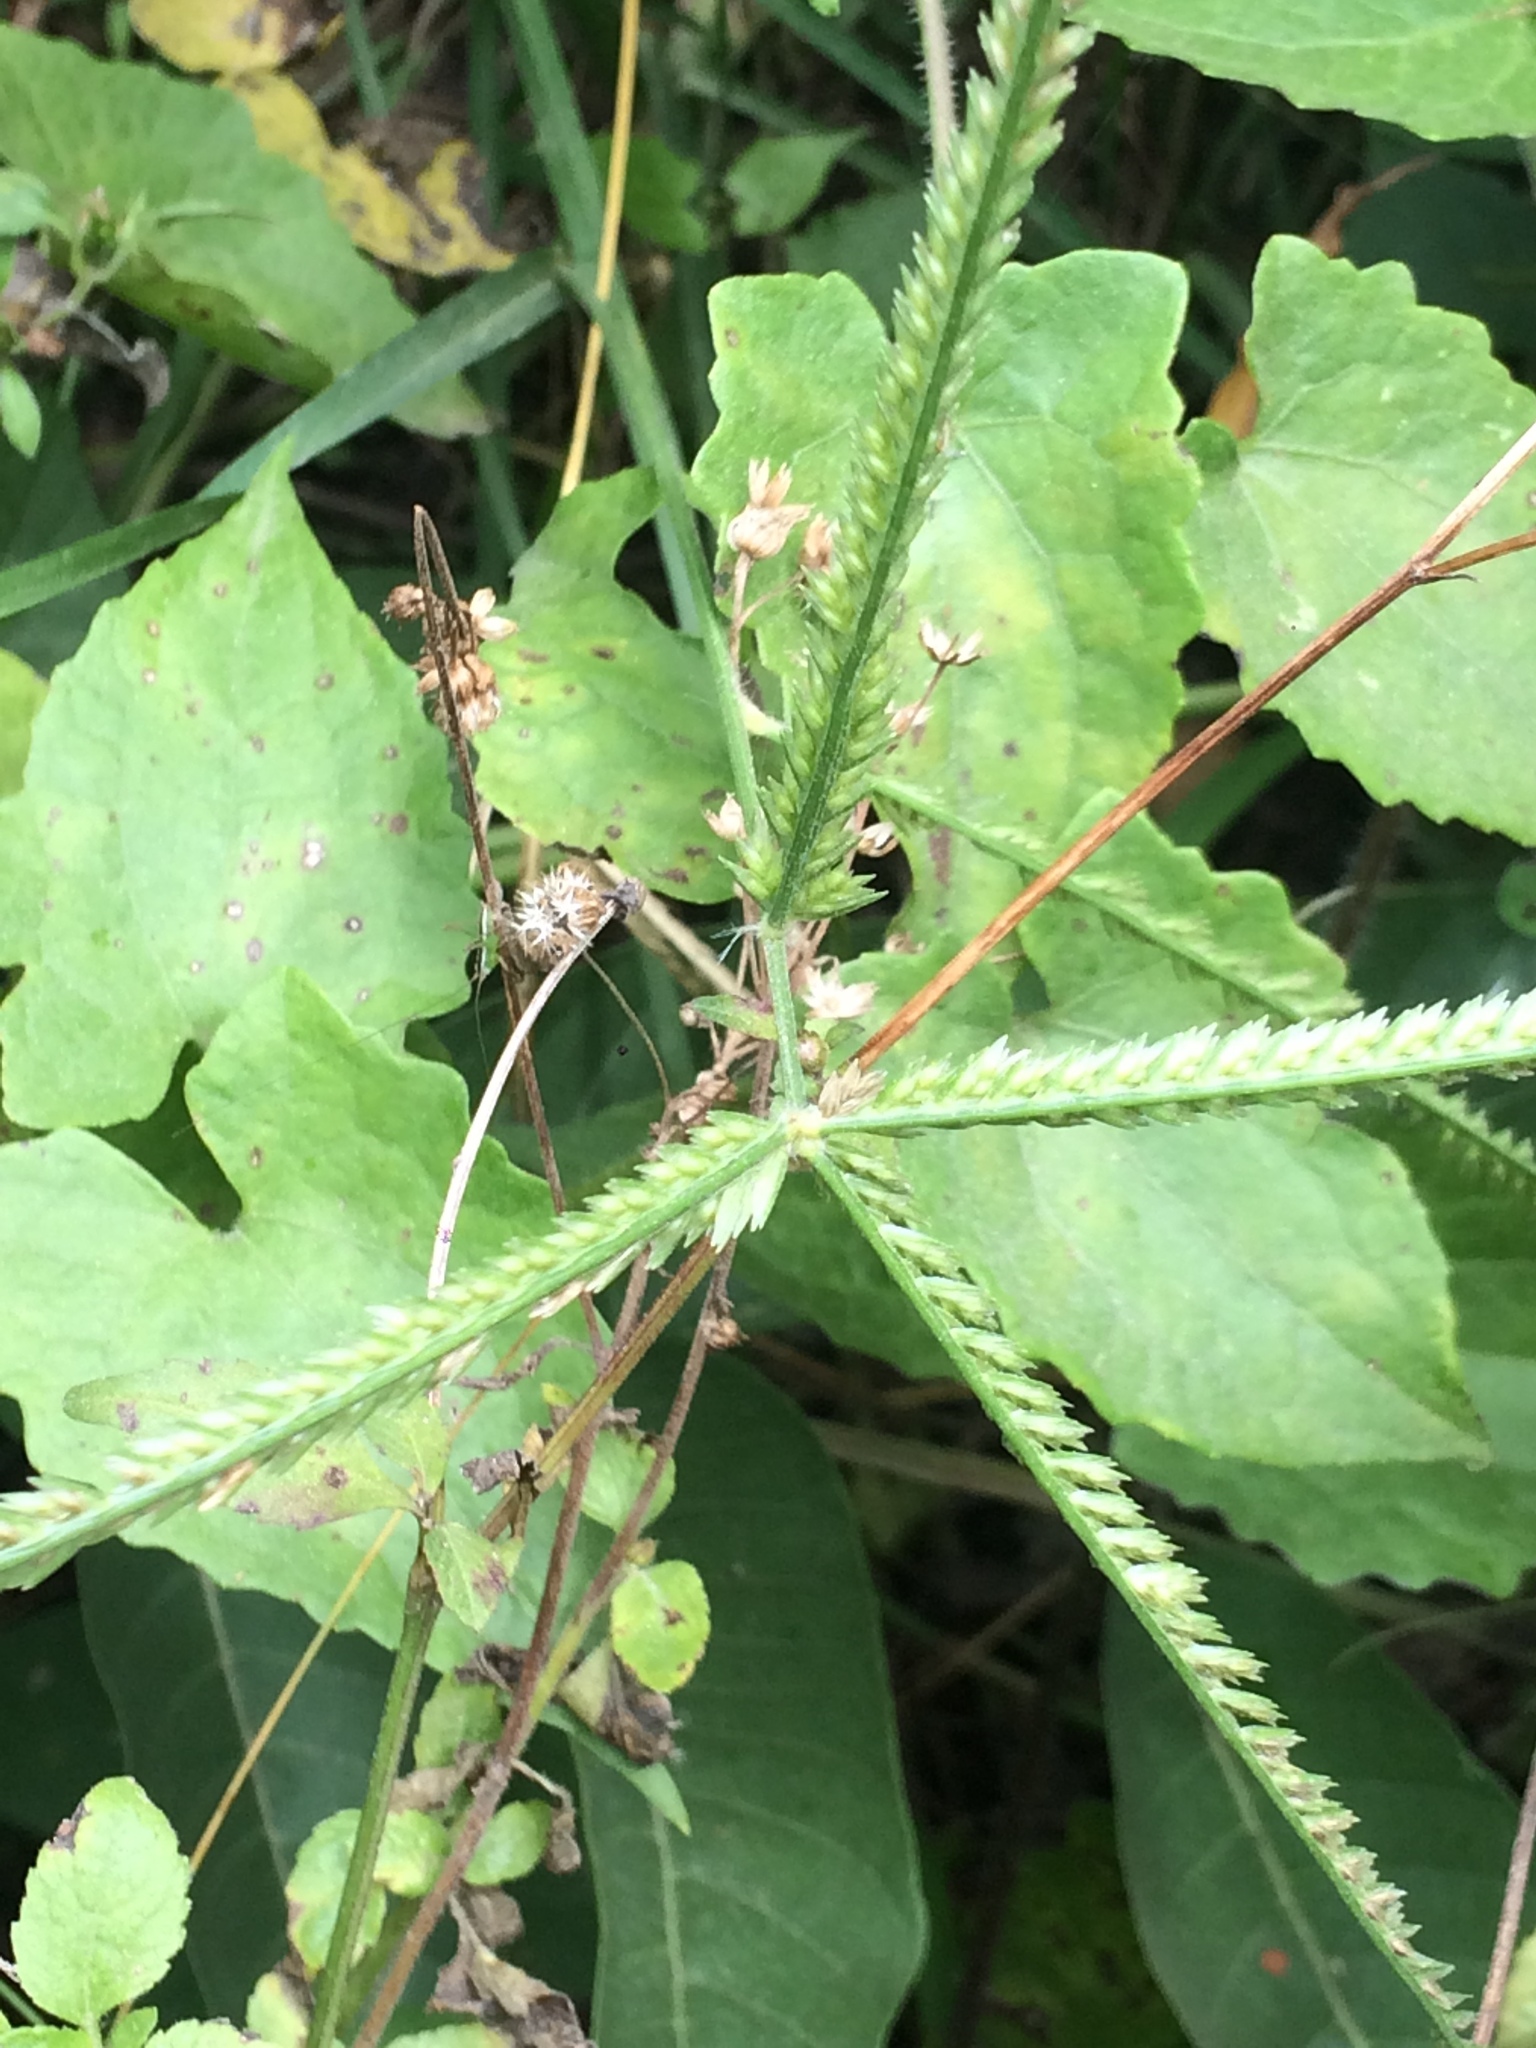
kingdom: Plantae
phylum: Tracheophyta
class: Liliopsida
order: Poales
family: Poaceae
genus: Eleusine
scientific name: Eleusine indica
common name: Yard-grass
